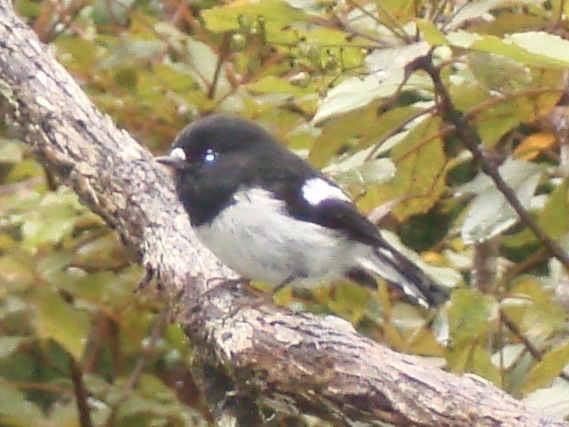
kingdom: Animalia
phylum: Chordata
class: Aves
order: Passeriformes
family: Petroicidae
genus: Petroica
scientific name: Petroica macrocephala
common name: Tomtit
